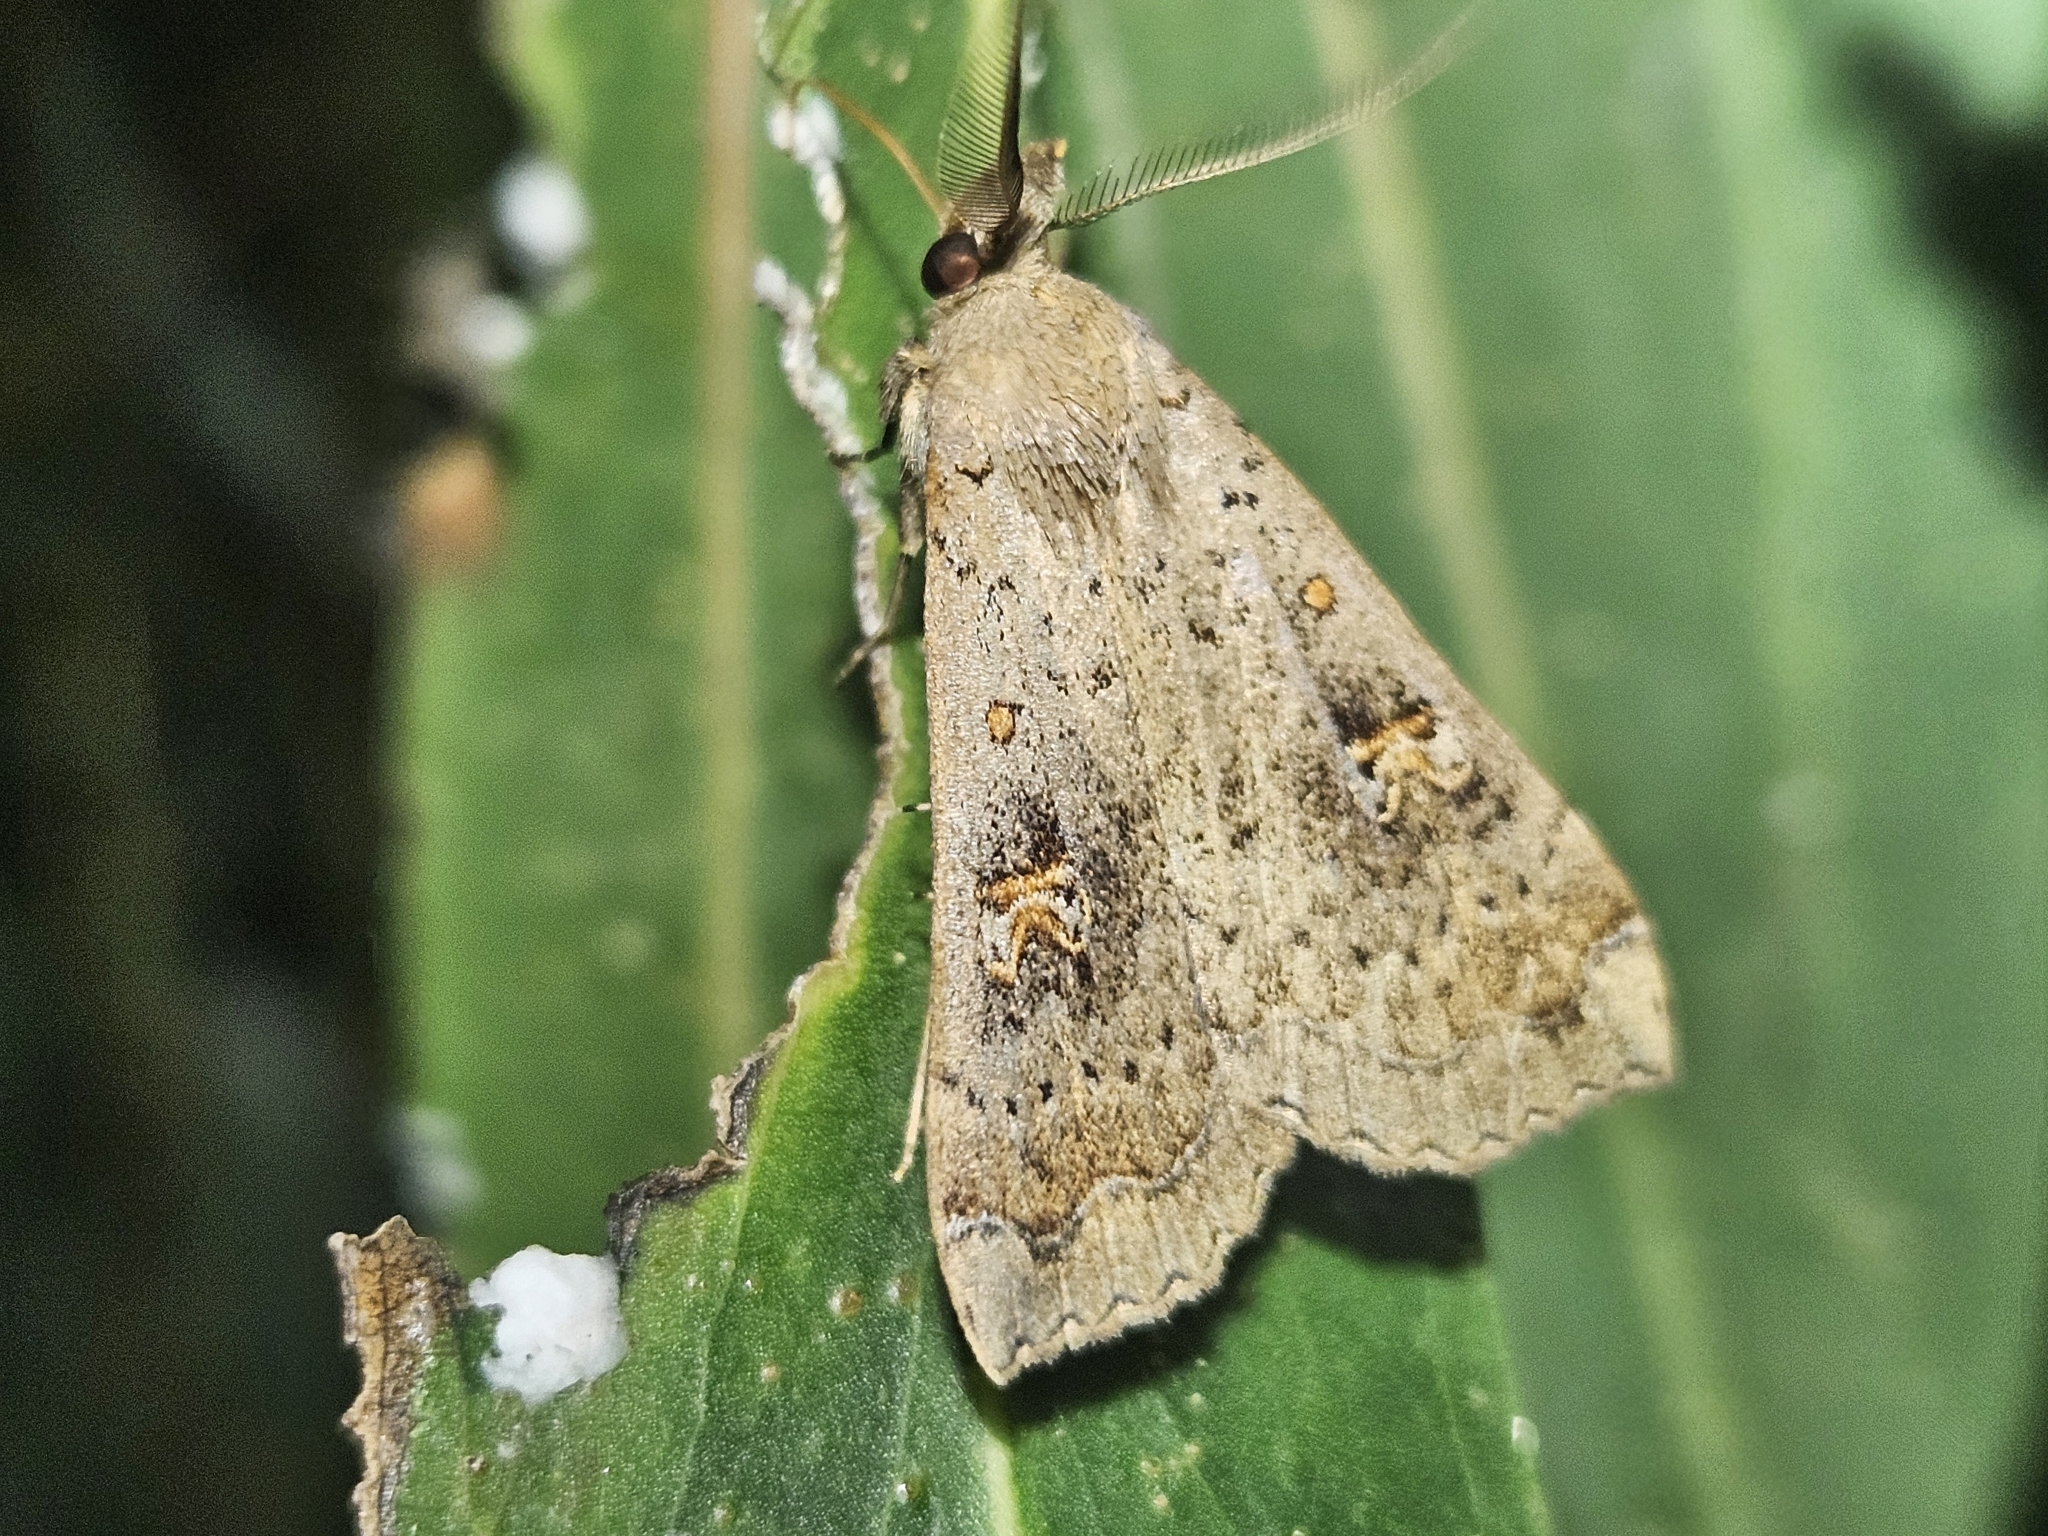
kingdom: Animalia
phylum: Arthropoda
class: Insecta
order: Lepidoptera
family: Erebidae
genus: Rhapsa
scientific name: Rhapsa scotosialis
